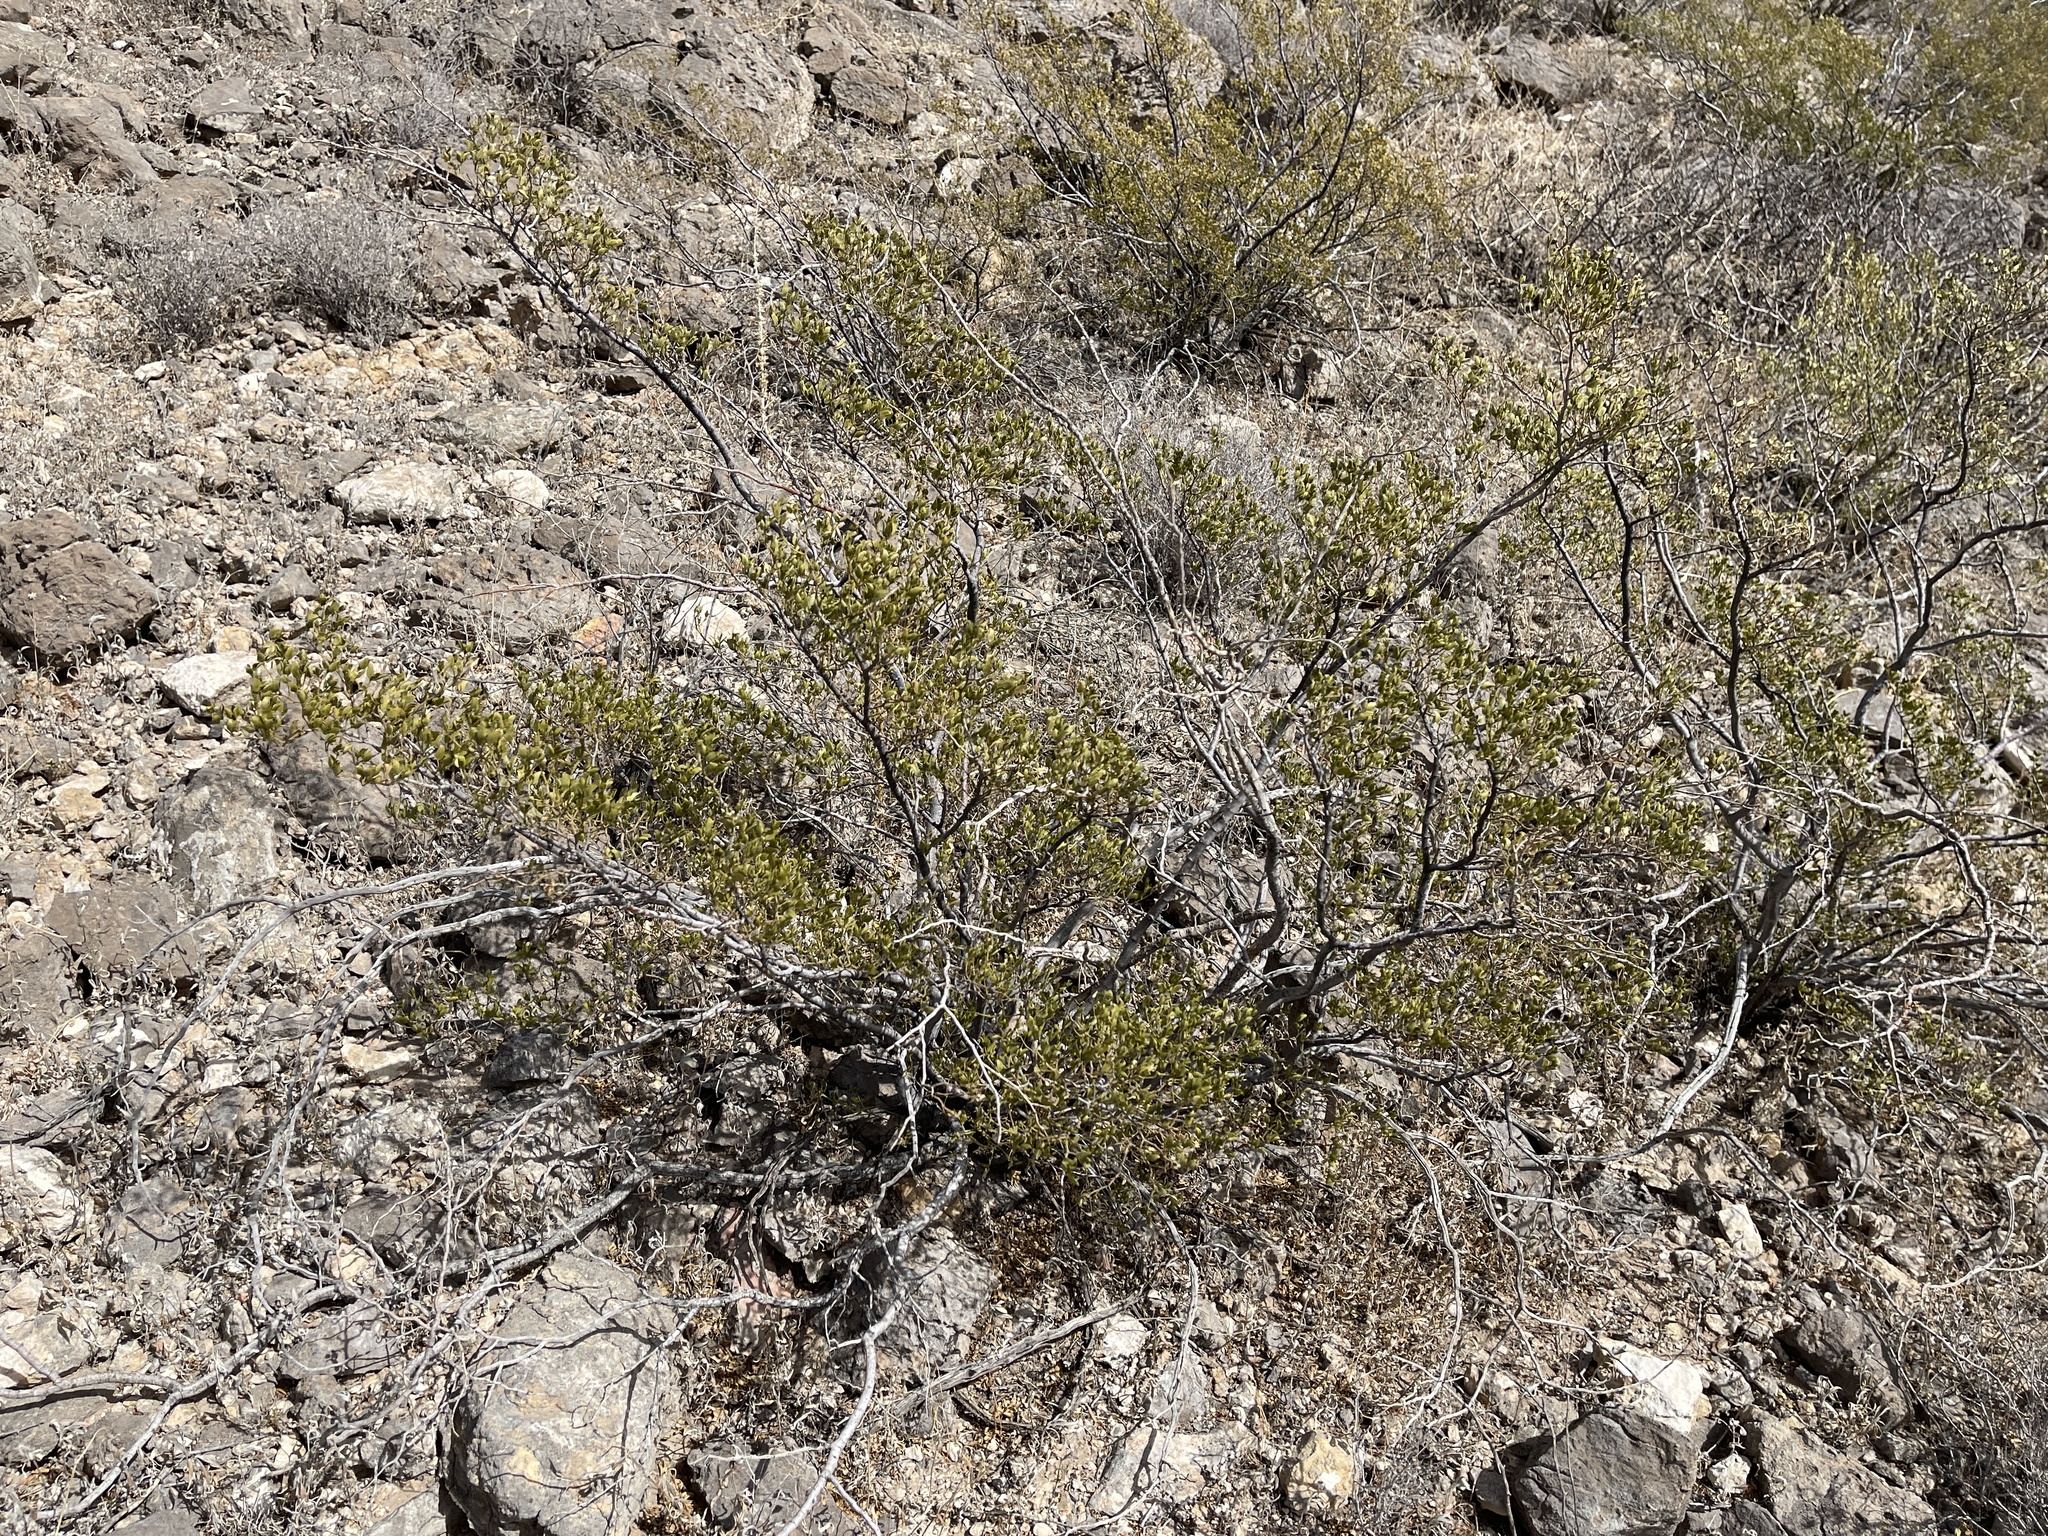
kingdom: Plantae
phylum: Tracheophyta
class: Magnoliopsida
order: Zygophyllales
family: Zygophyllaceae
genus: Larrea
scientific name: Larrea tridentata
